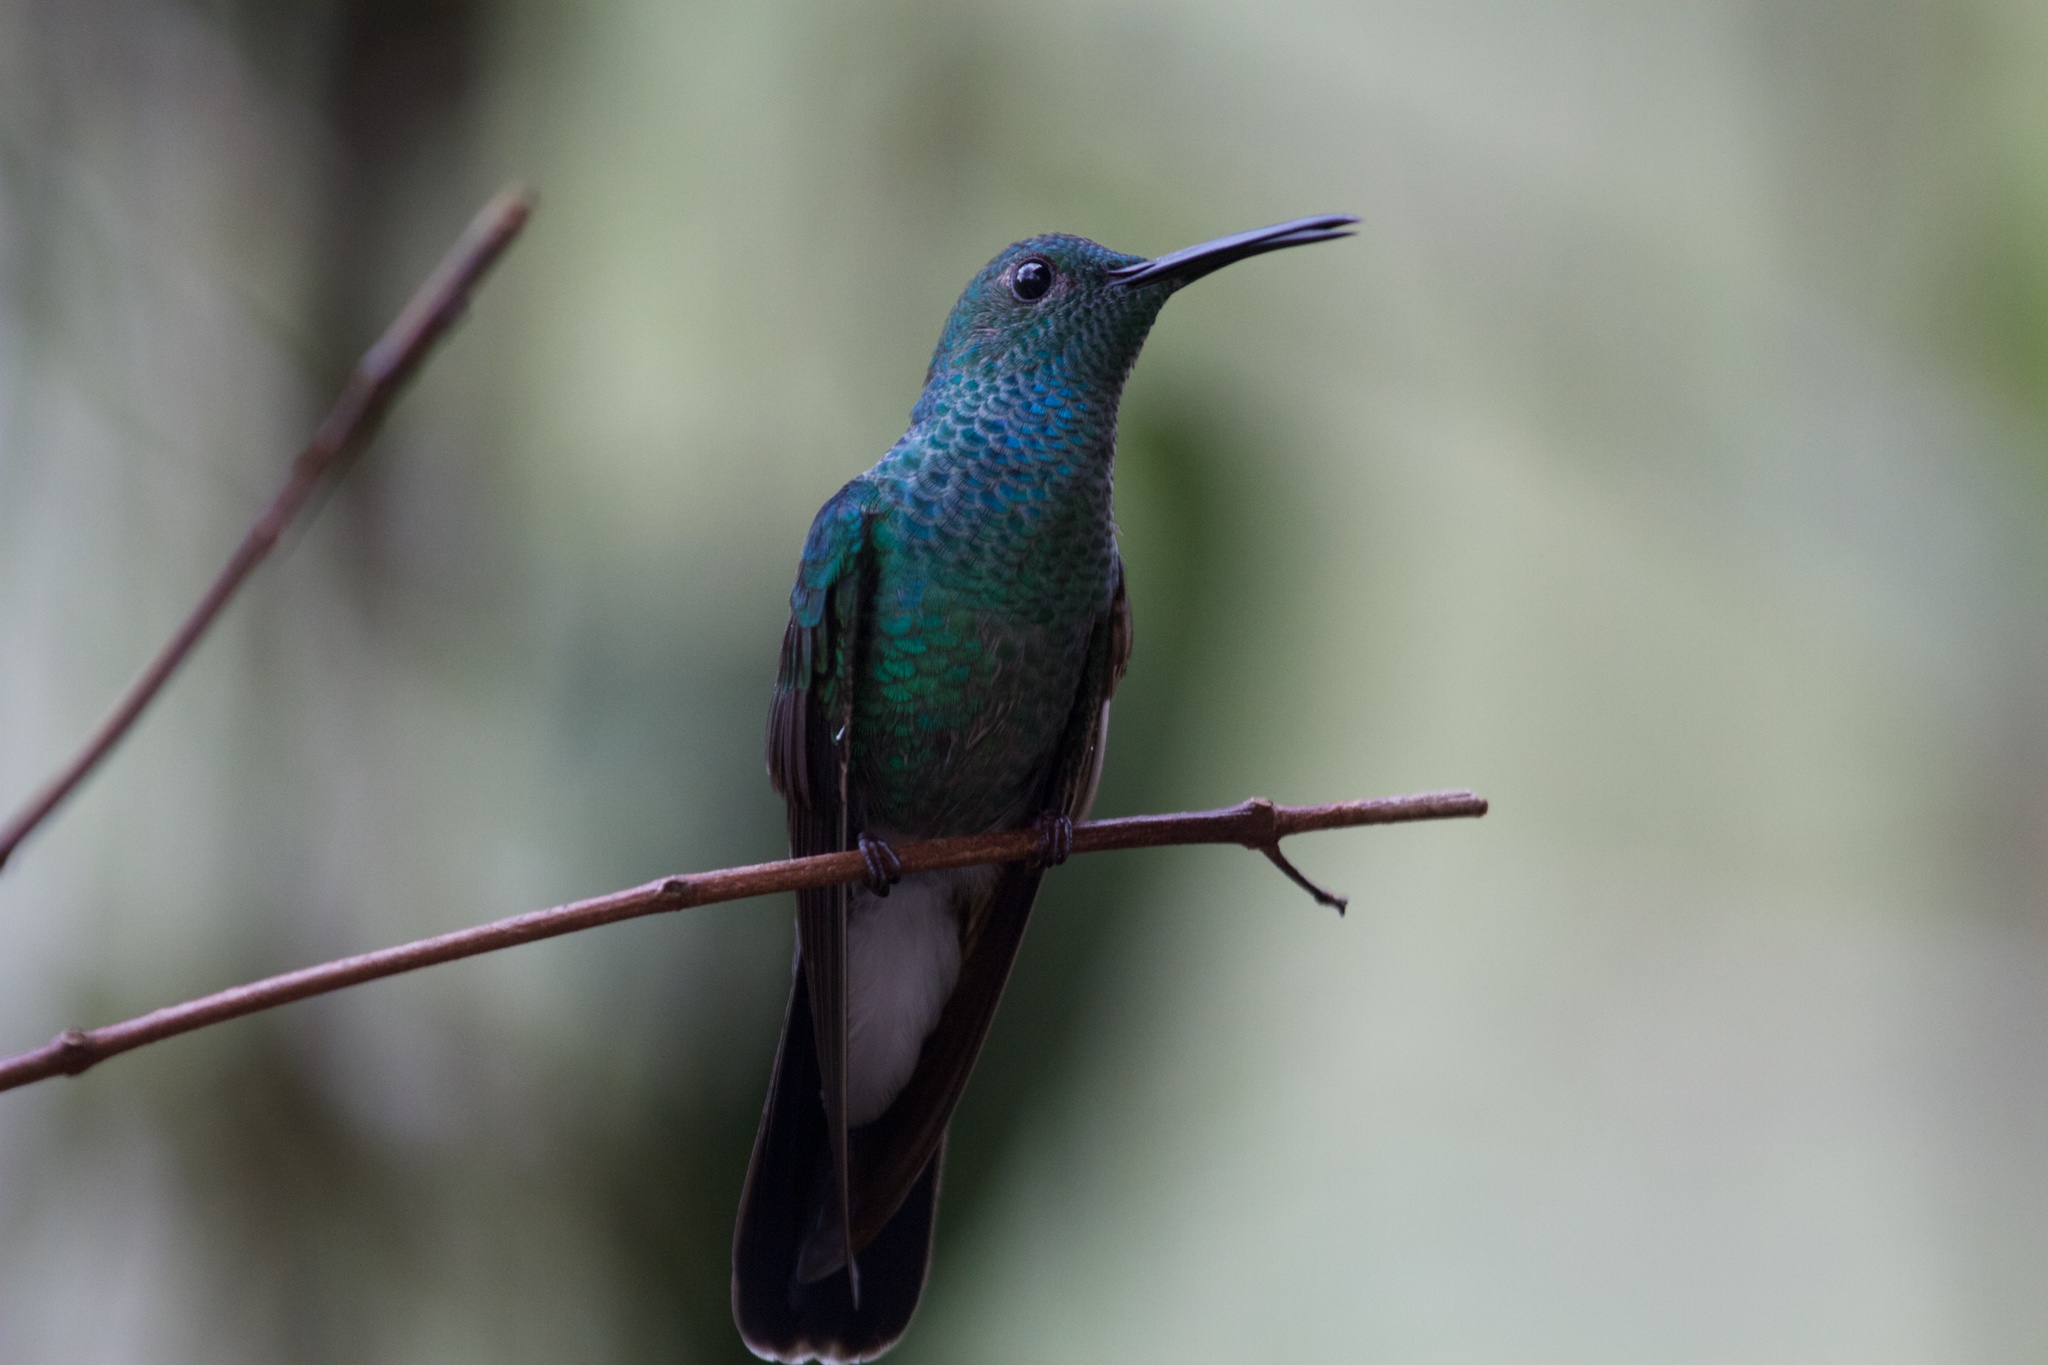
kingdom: Animalia
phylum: Chordata
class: Aves
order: Apodiformes
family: Trochilidae
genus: Chalybura
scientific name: Chalybura buffonii
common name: White-vented plumeleteer
